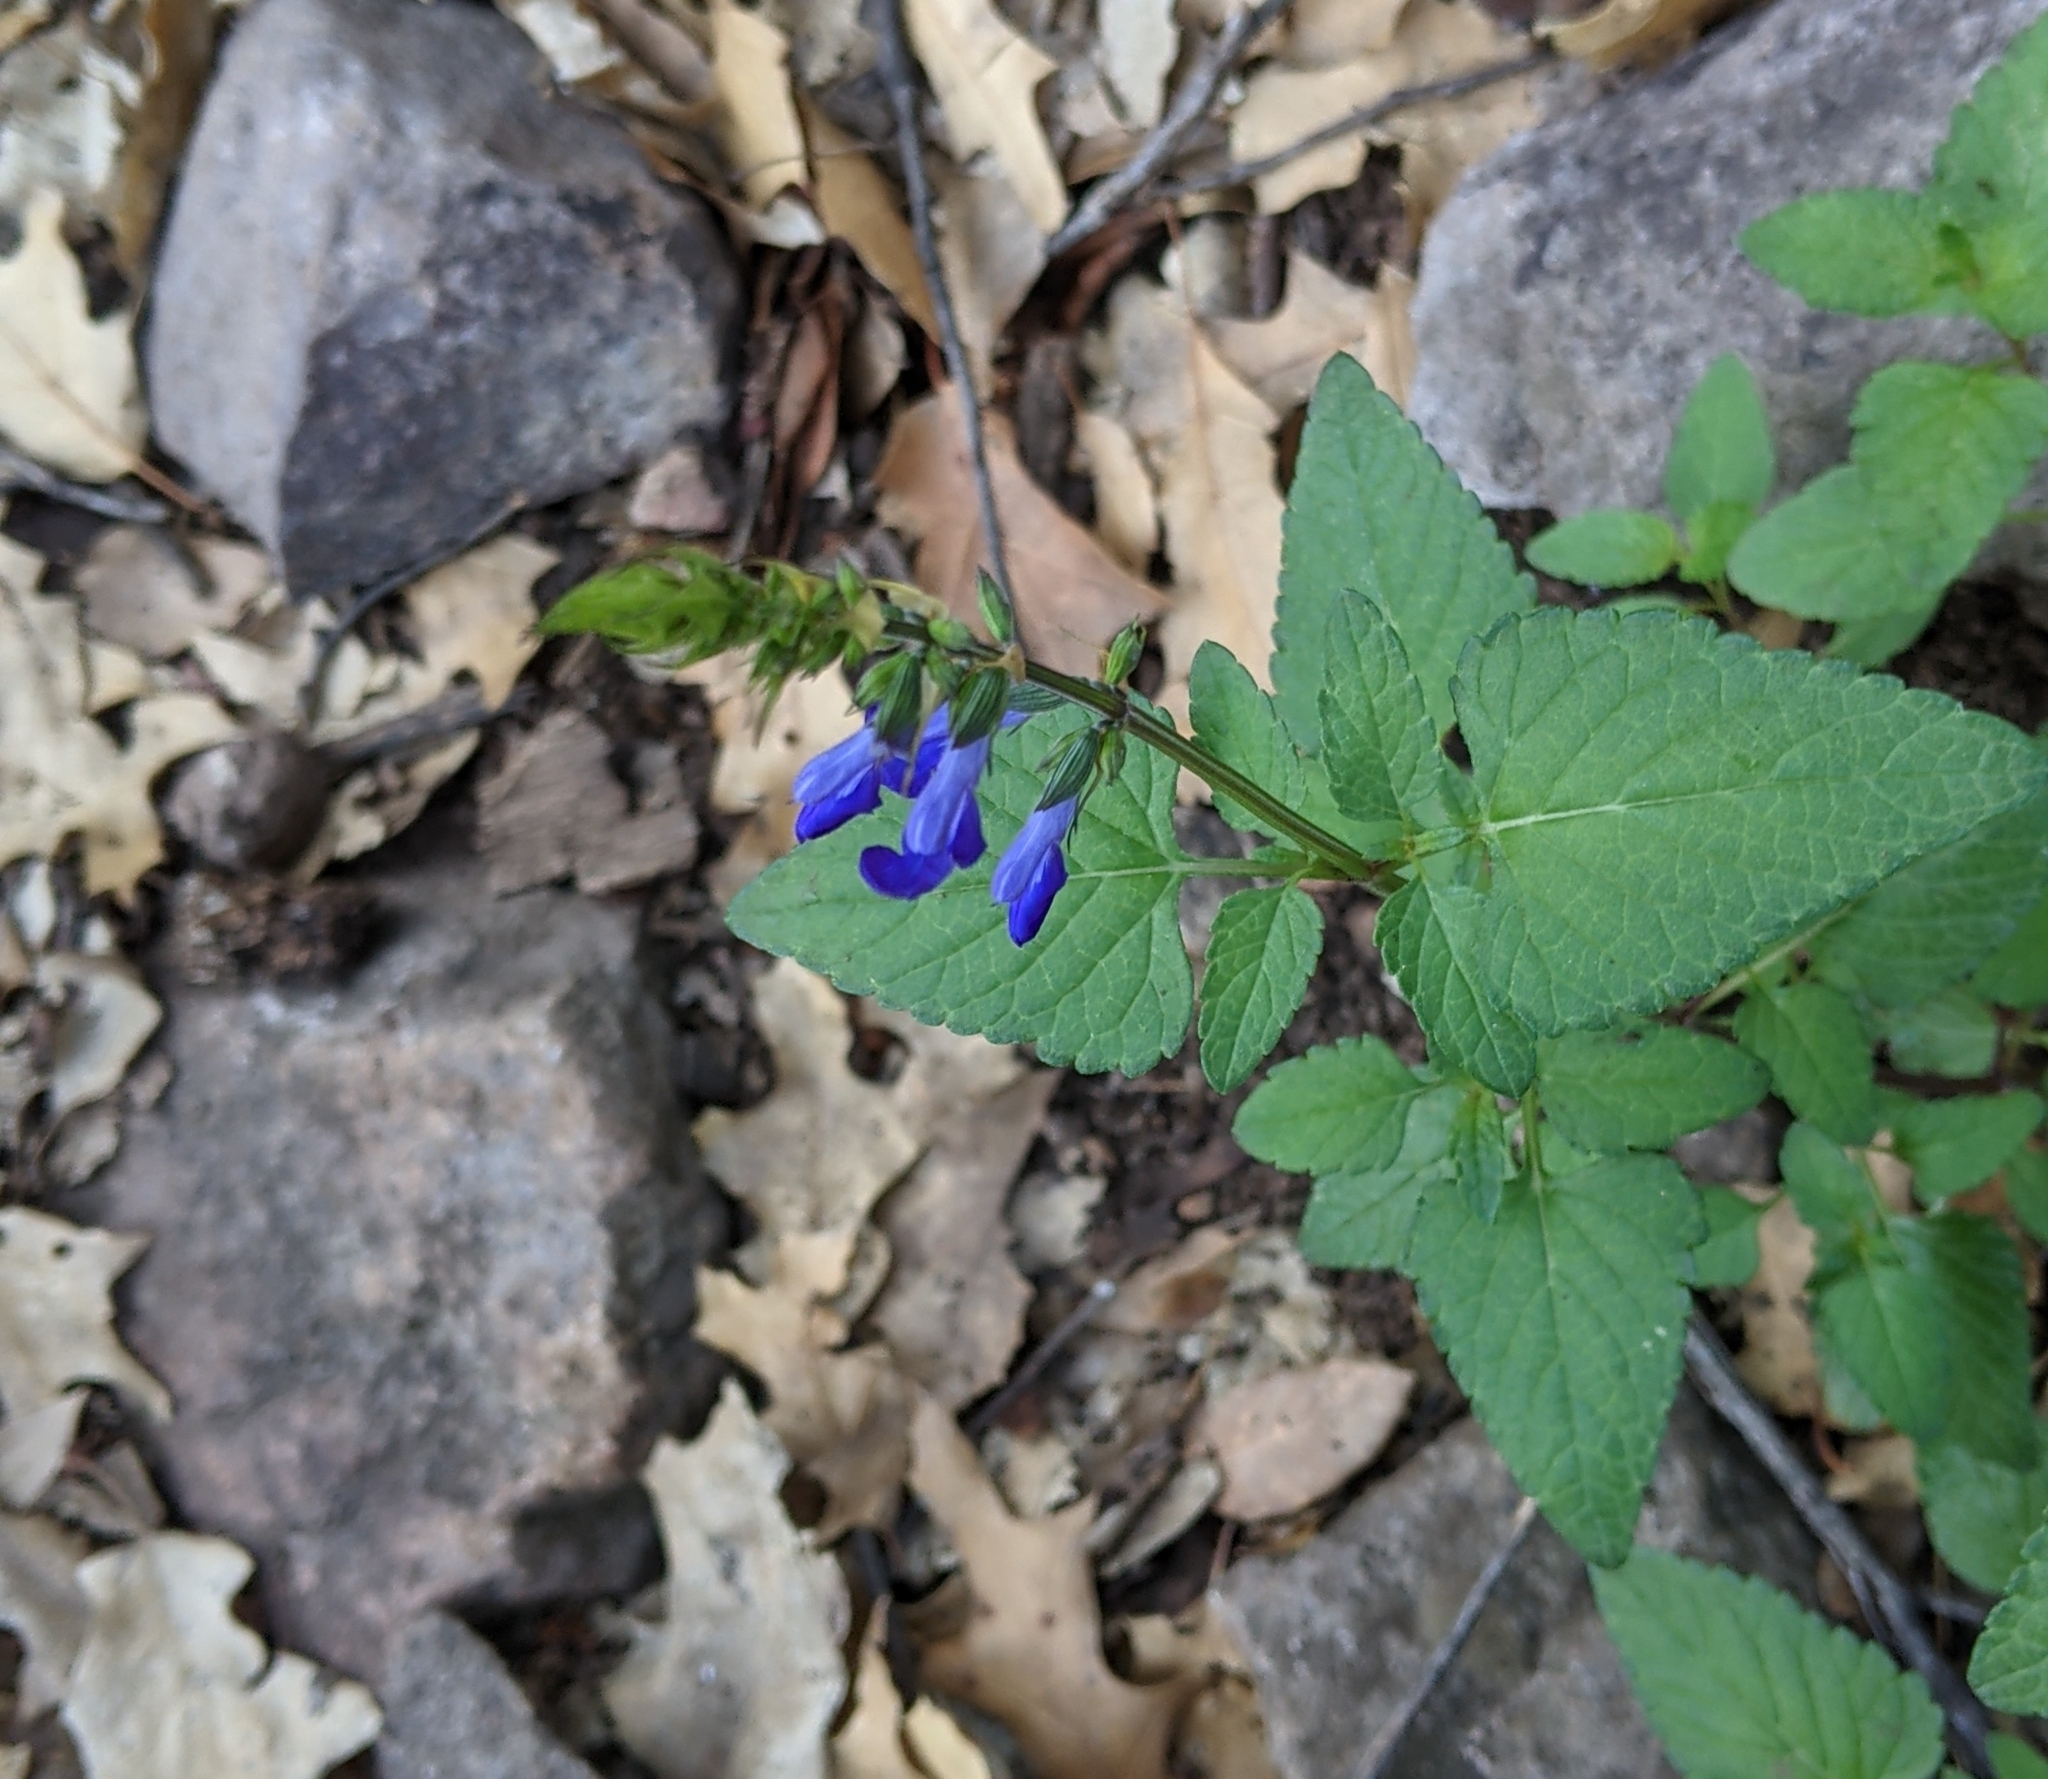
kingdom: Plantae
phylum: Tracheophyta
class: Magnoliopsida
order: Lamiales
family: Lamiaceae
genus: Salvia
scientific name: Salvia arizonica
